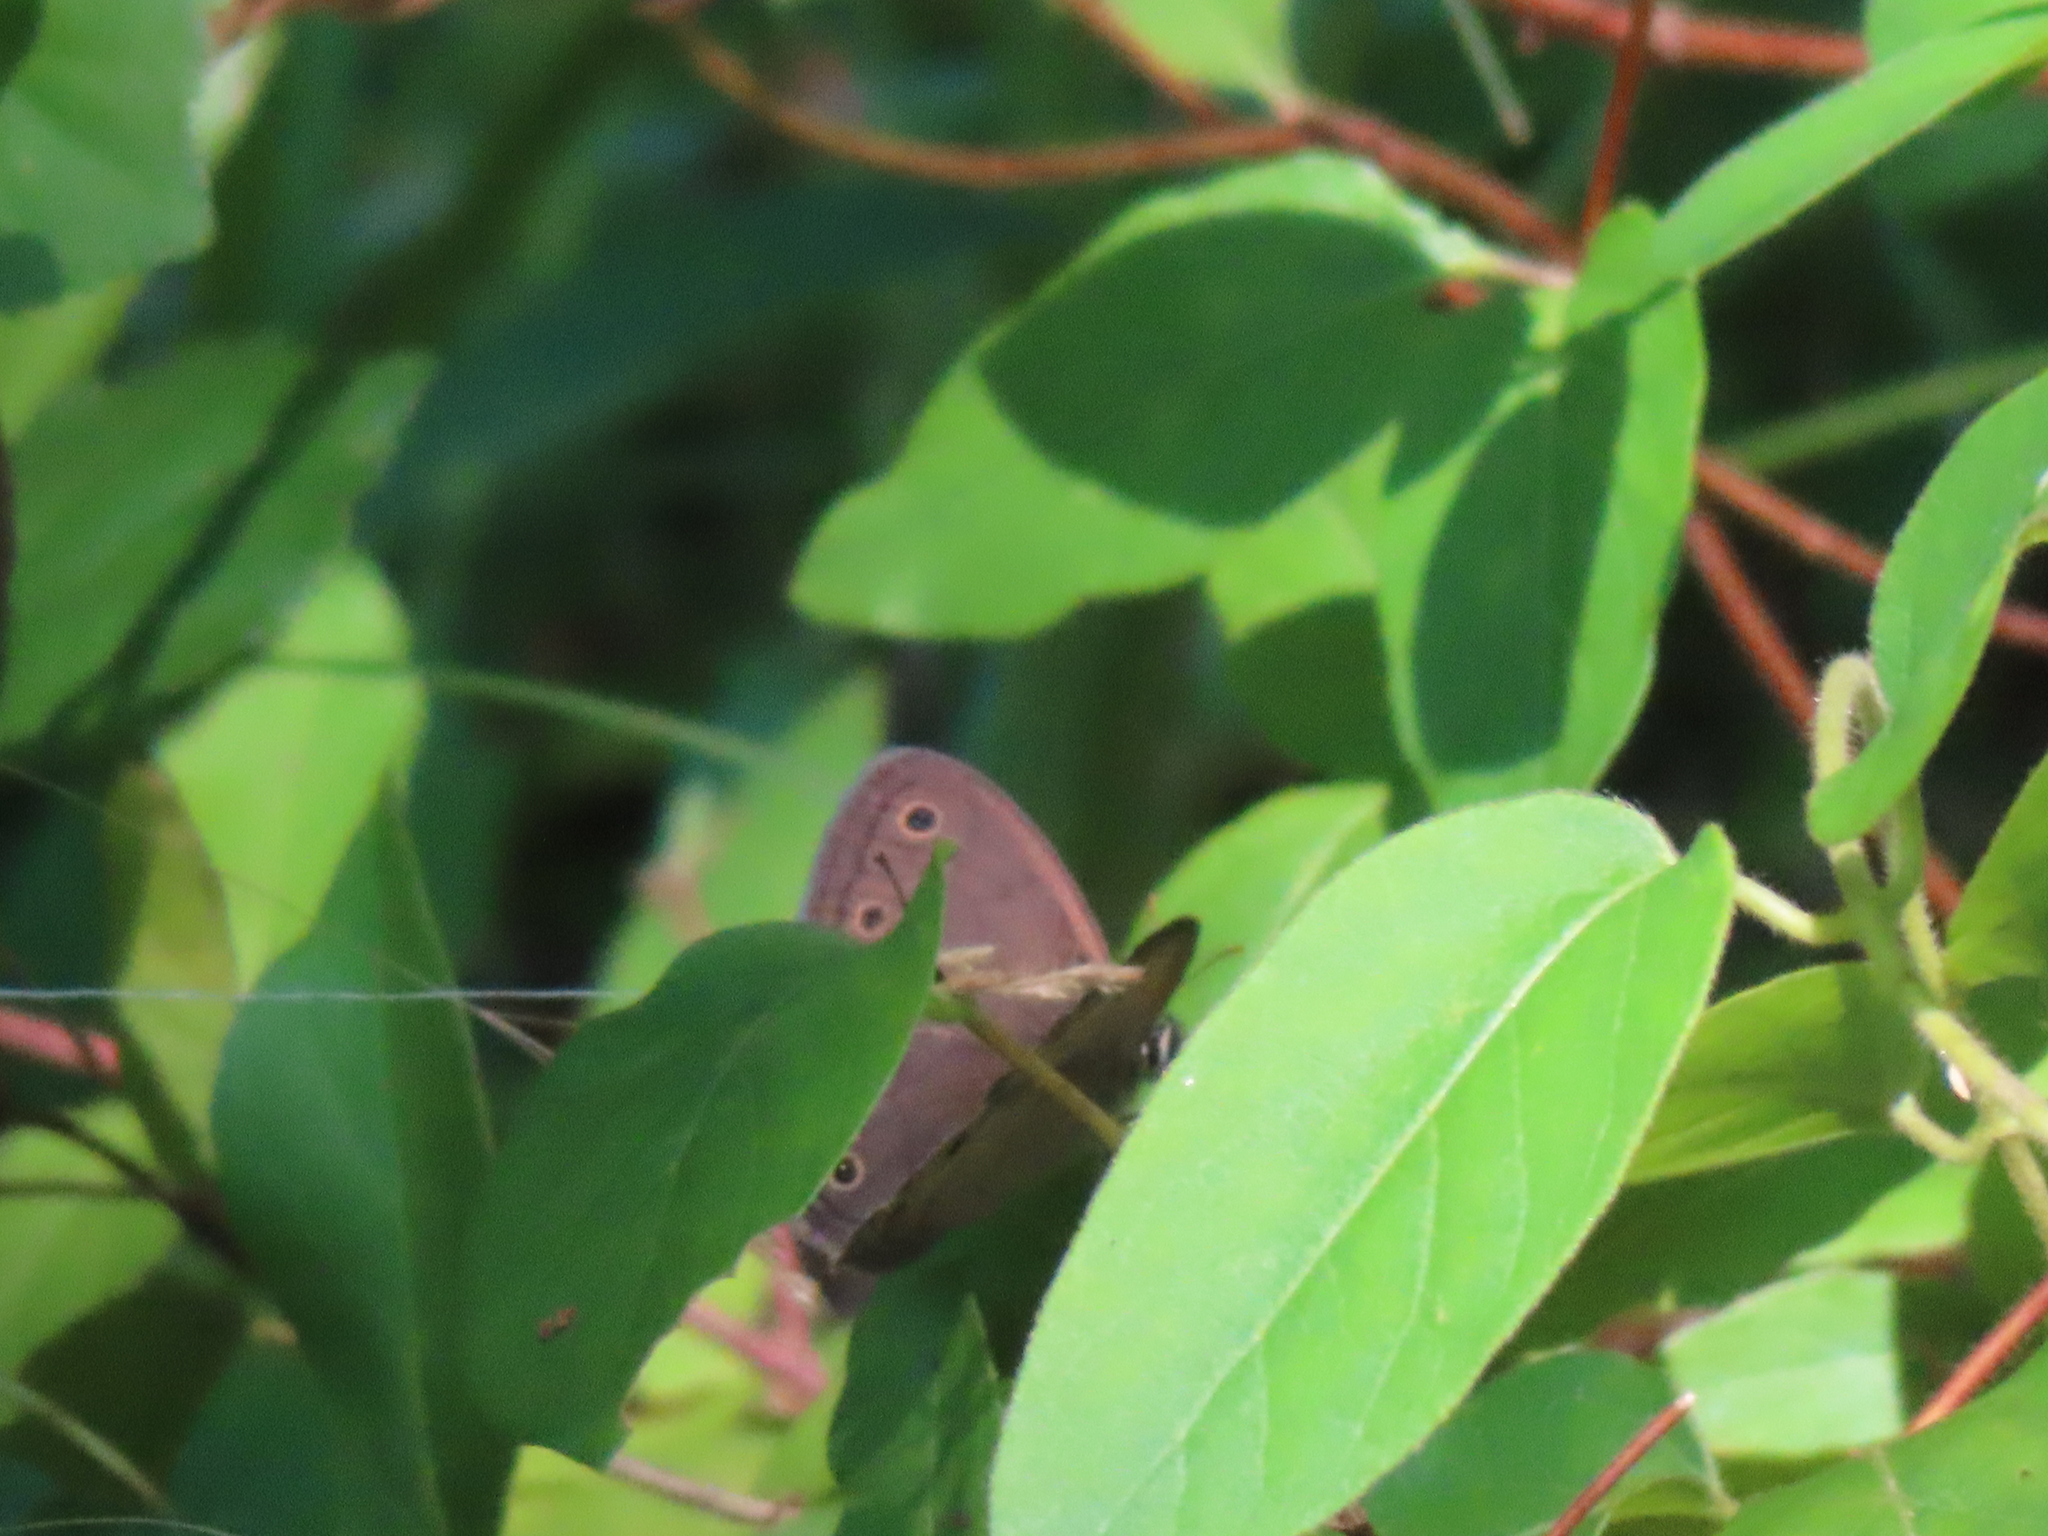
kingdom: Animalia
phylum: Arthropoda
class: Insecta
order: Lepidoptera
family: Nymphalidae
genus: Euptychia
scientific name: Euptychia cymela
